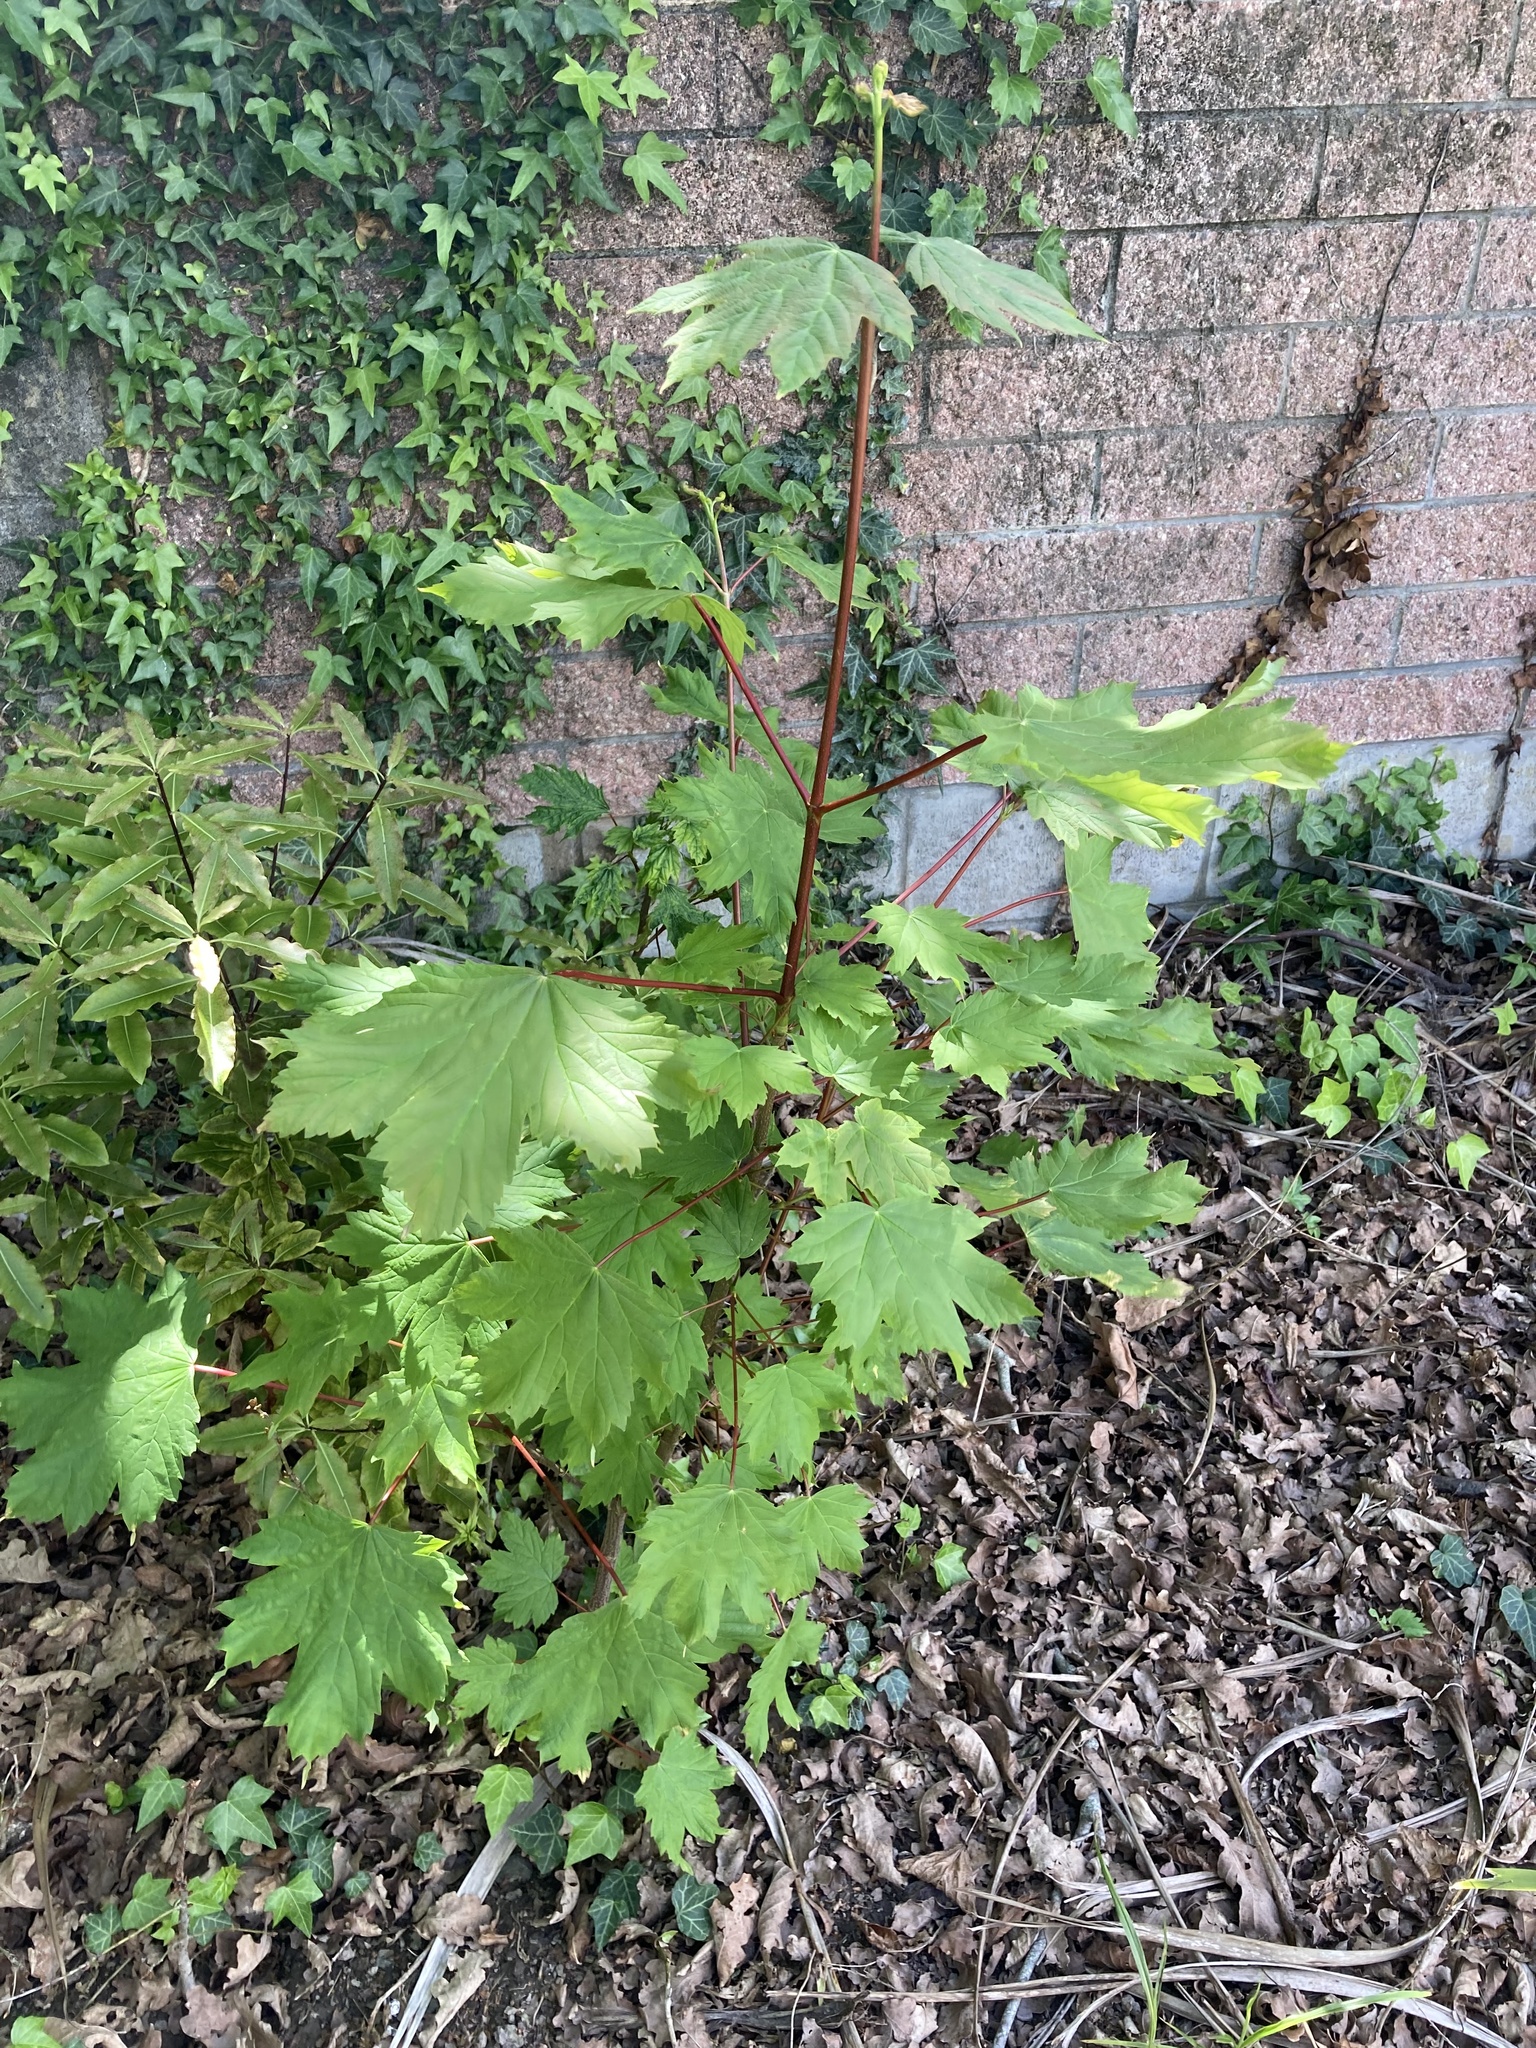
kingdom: Plantae
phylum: Tracheophyta
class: Magnoliopsida
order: Sapindales
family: Sapindaceae
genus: Acer
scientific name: Acer pseudoplatanus
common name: Sycamore
